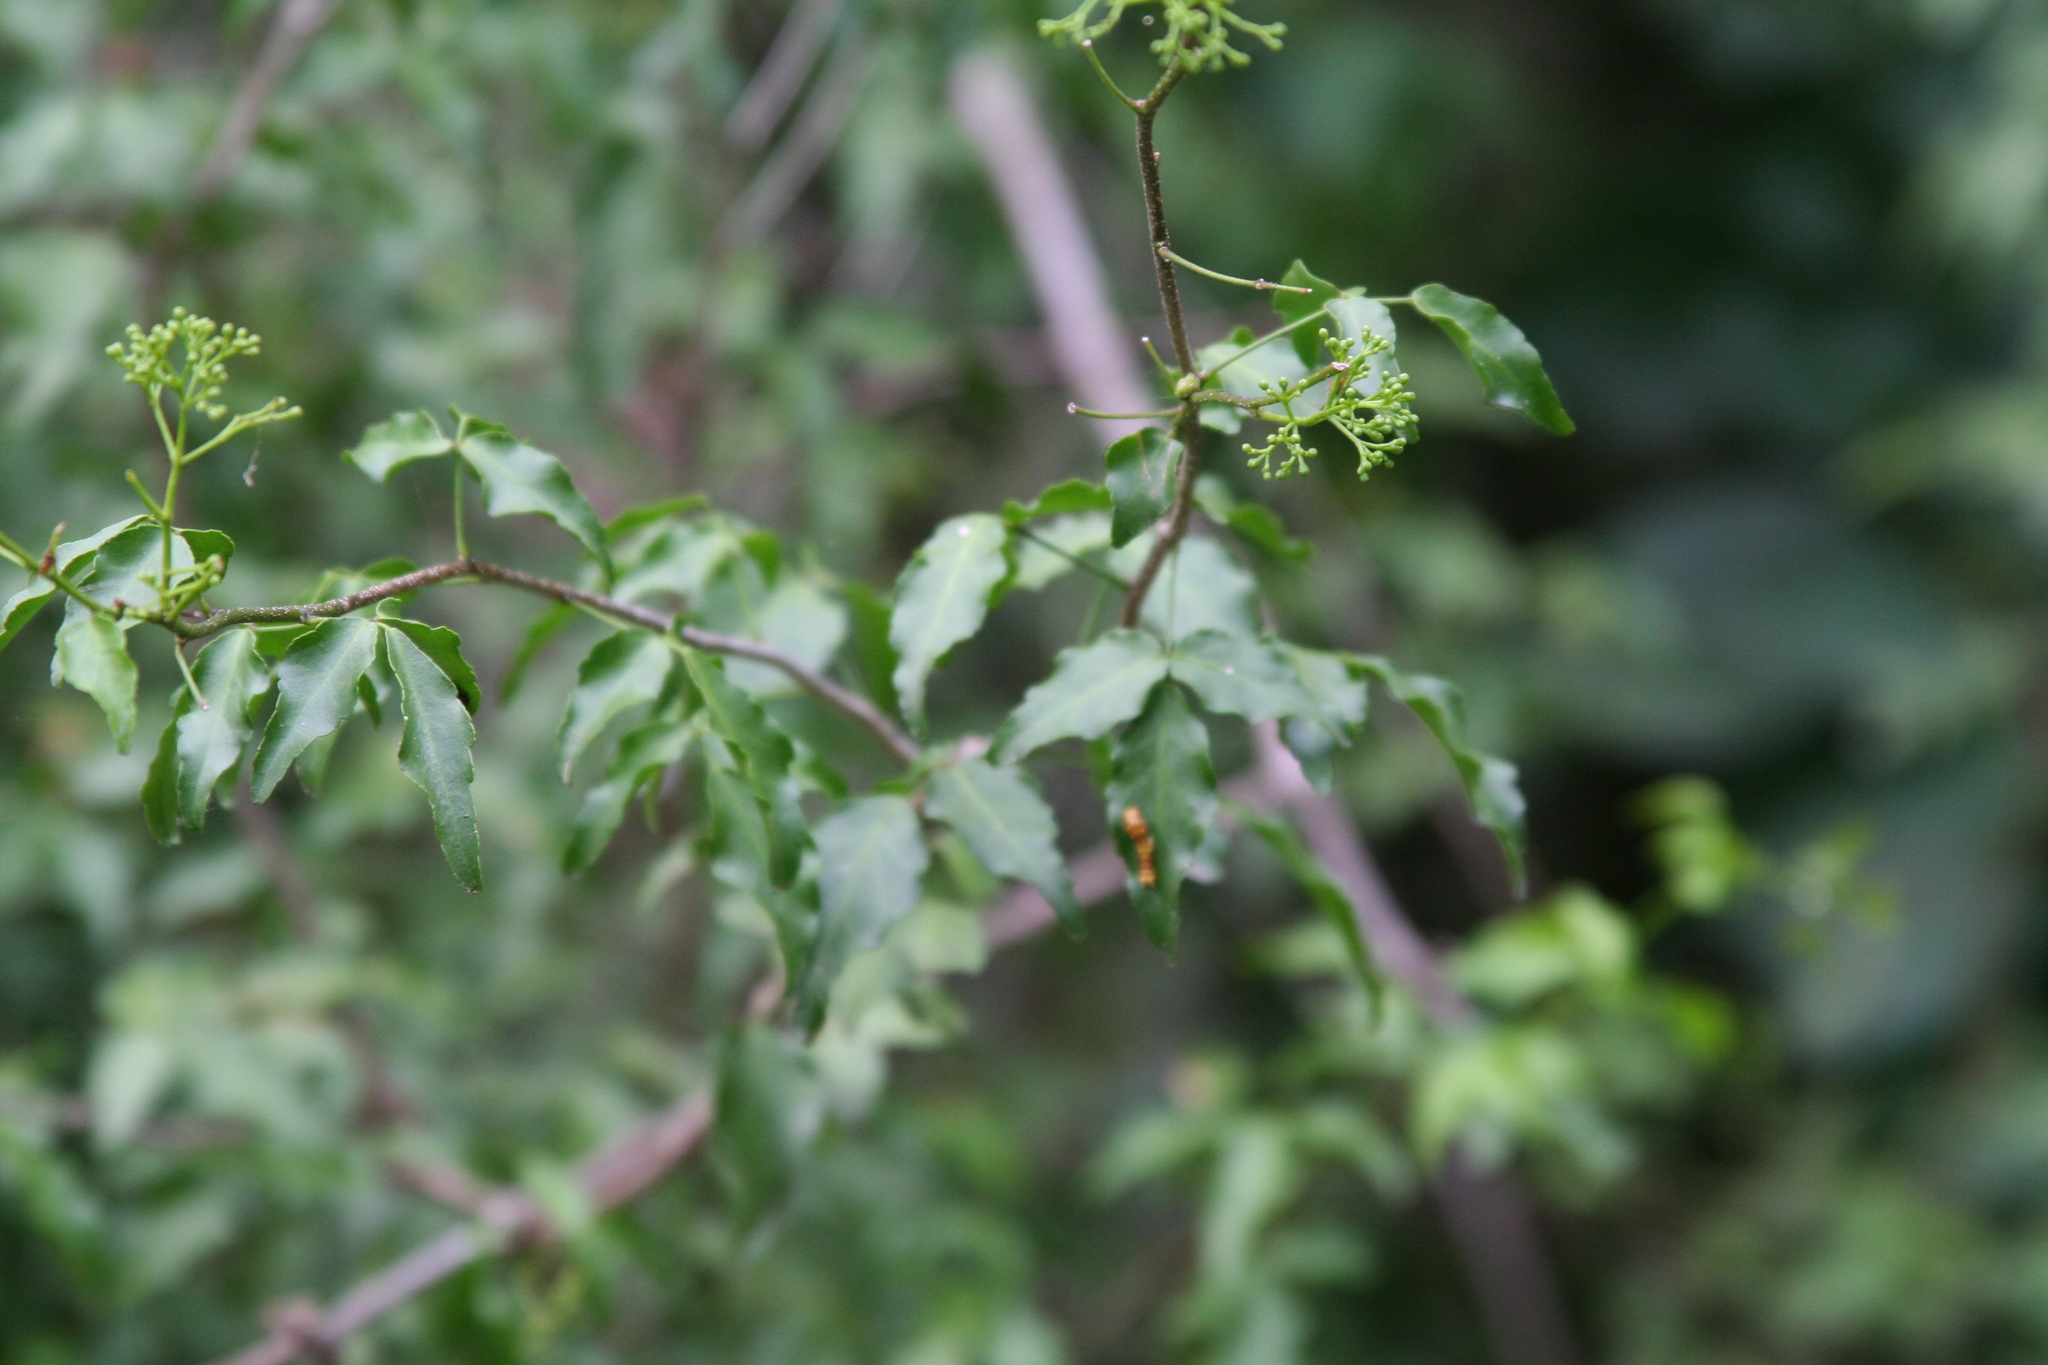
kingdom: Plantae
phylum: Tracheophyta
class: Magnoliopsida
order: Sapindales
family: Rutaceae
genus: Amyris
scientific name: Amyris texana
